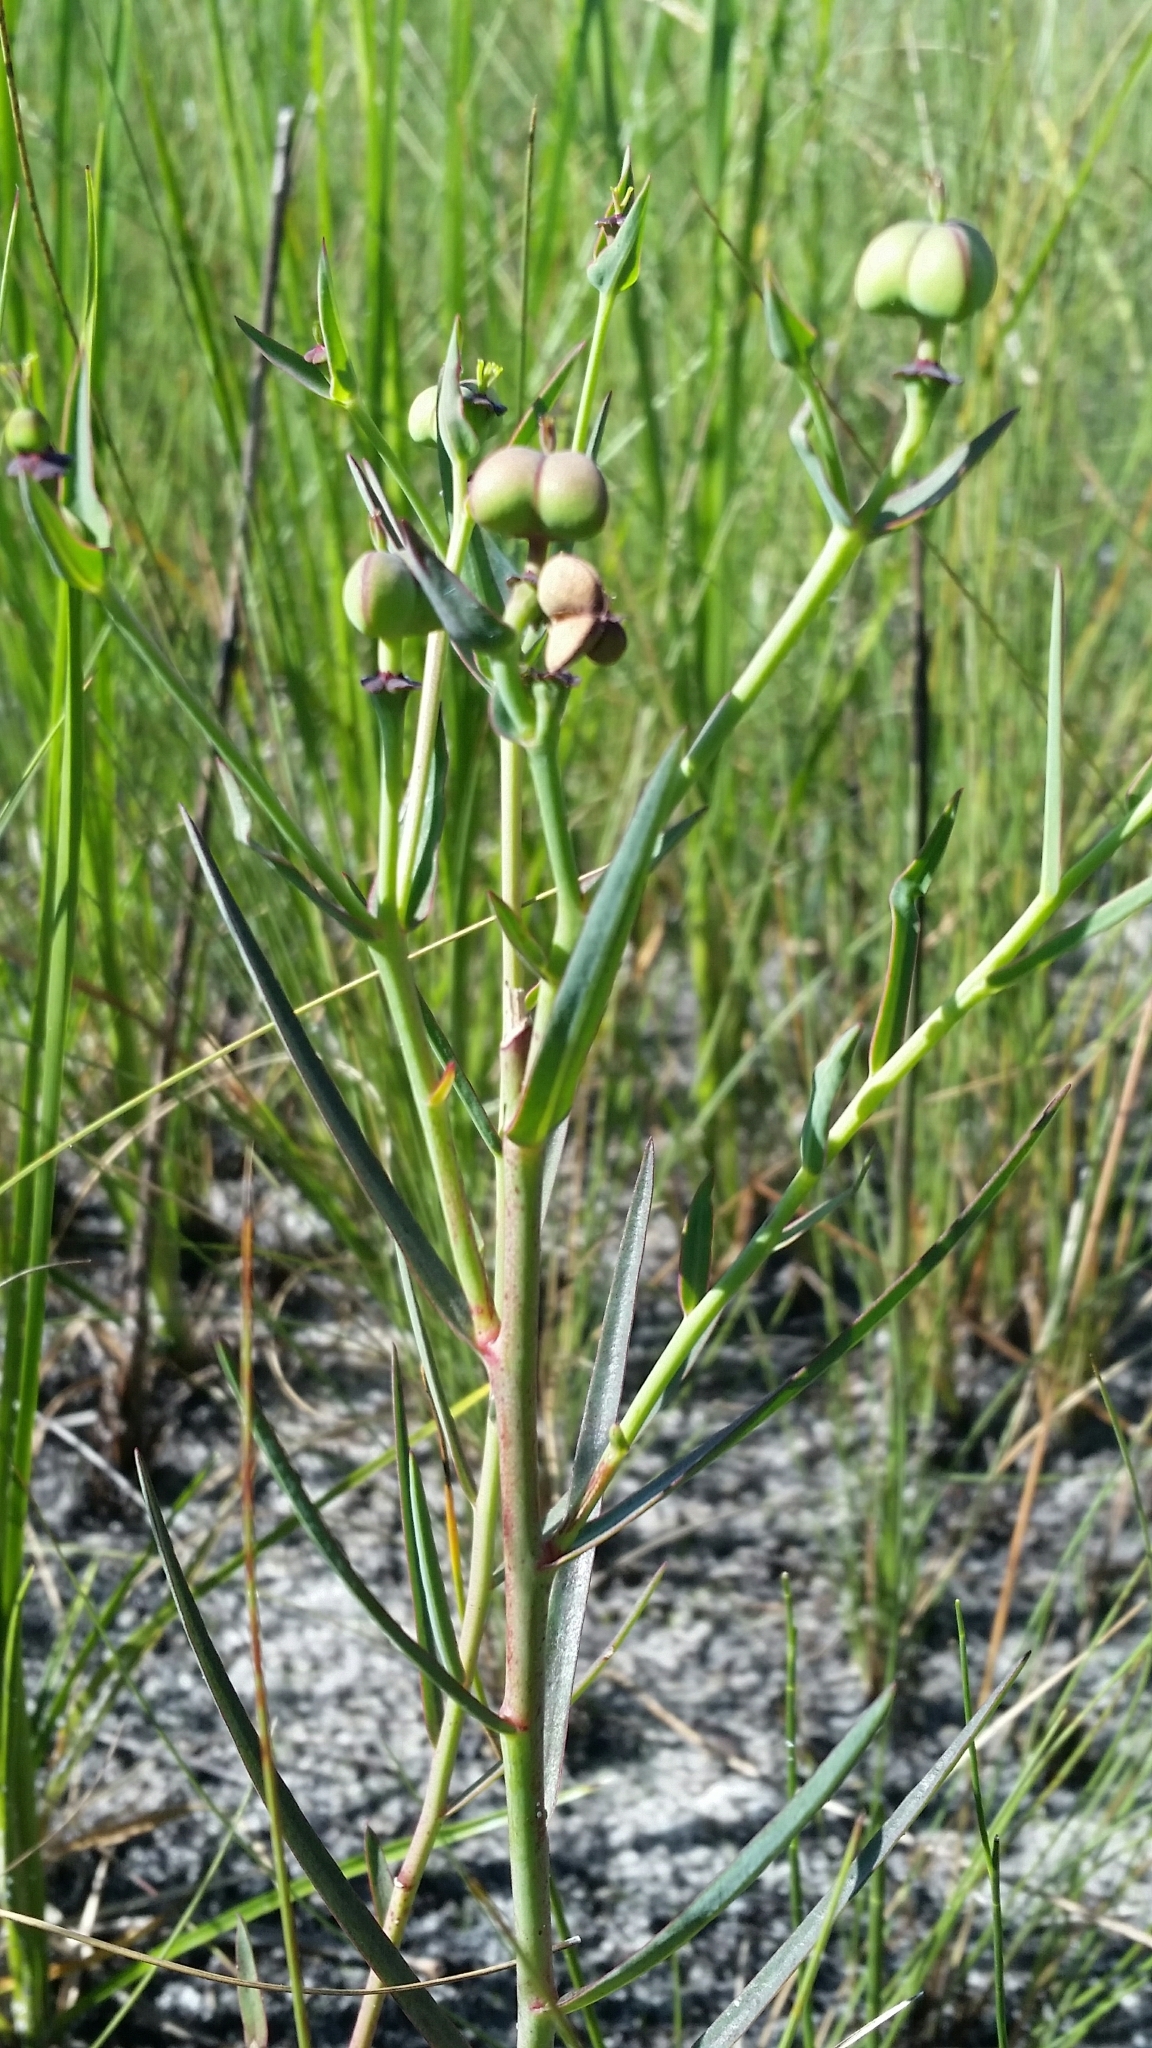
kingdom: Plantae
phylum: Tracheophyta
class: Magnoliopsida
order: Malpighiales
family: Euphorbiaceae
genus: Euphorbia
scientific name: Euphorbia inundata
